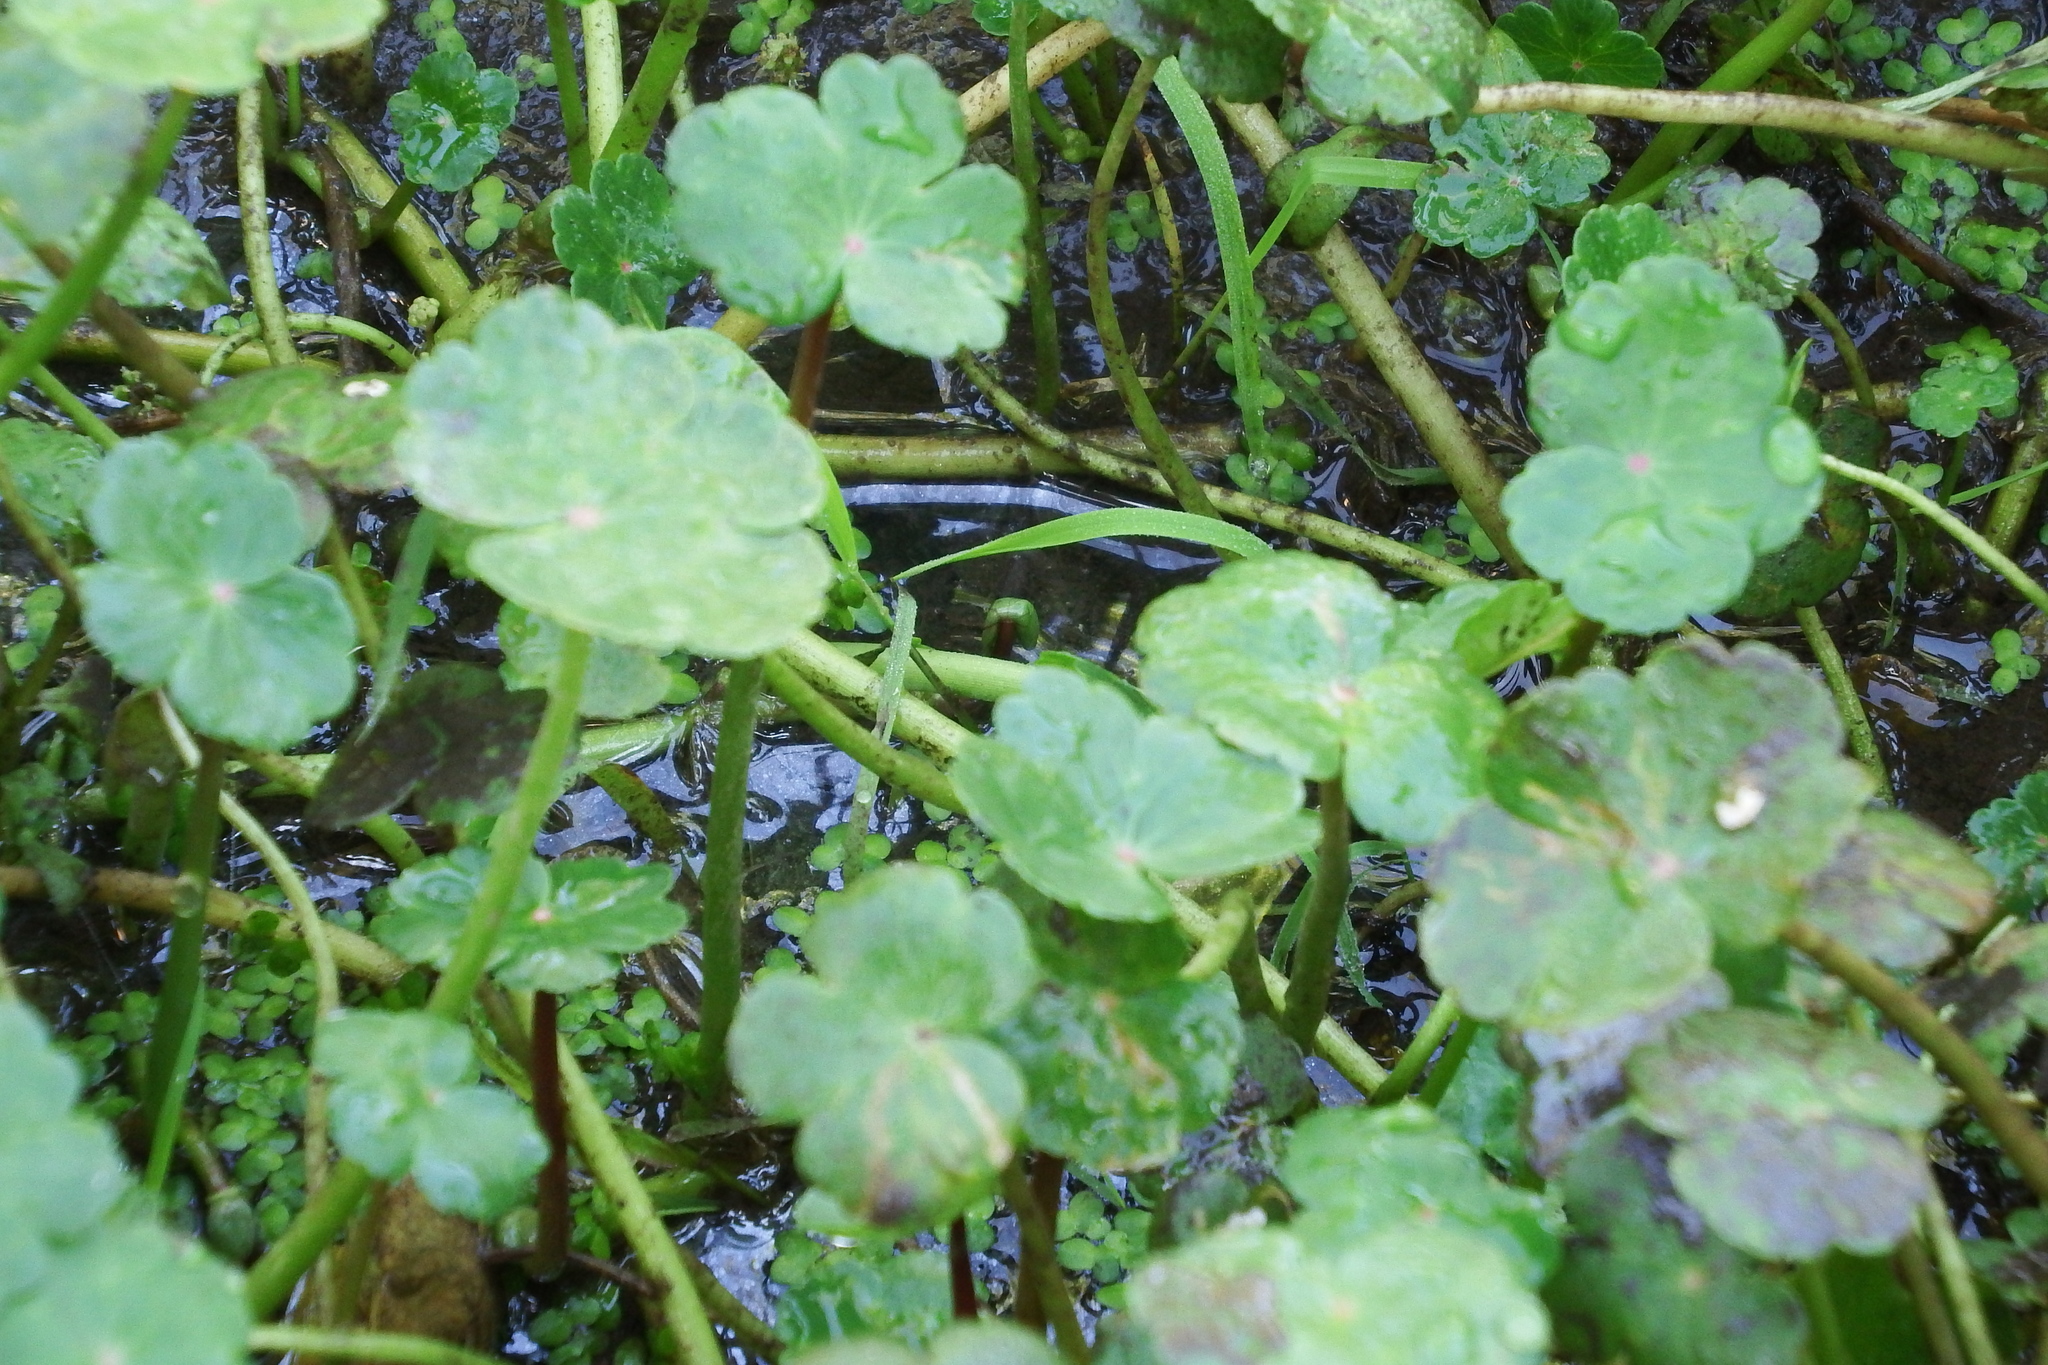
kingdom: Plantae
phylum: Tracheophyta
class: Magnoliopsida
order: Apiales
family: Araliaceae
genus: Hydrocotyle
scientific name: Hydrocotyle ranunculoides
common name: Floating pennywort
